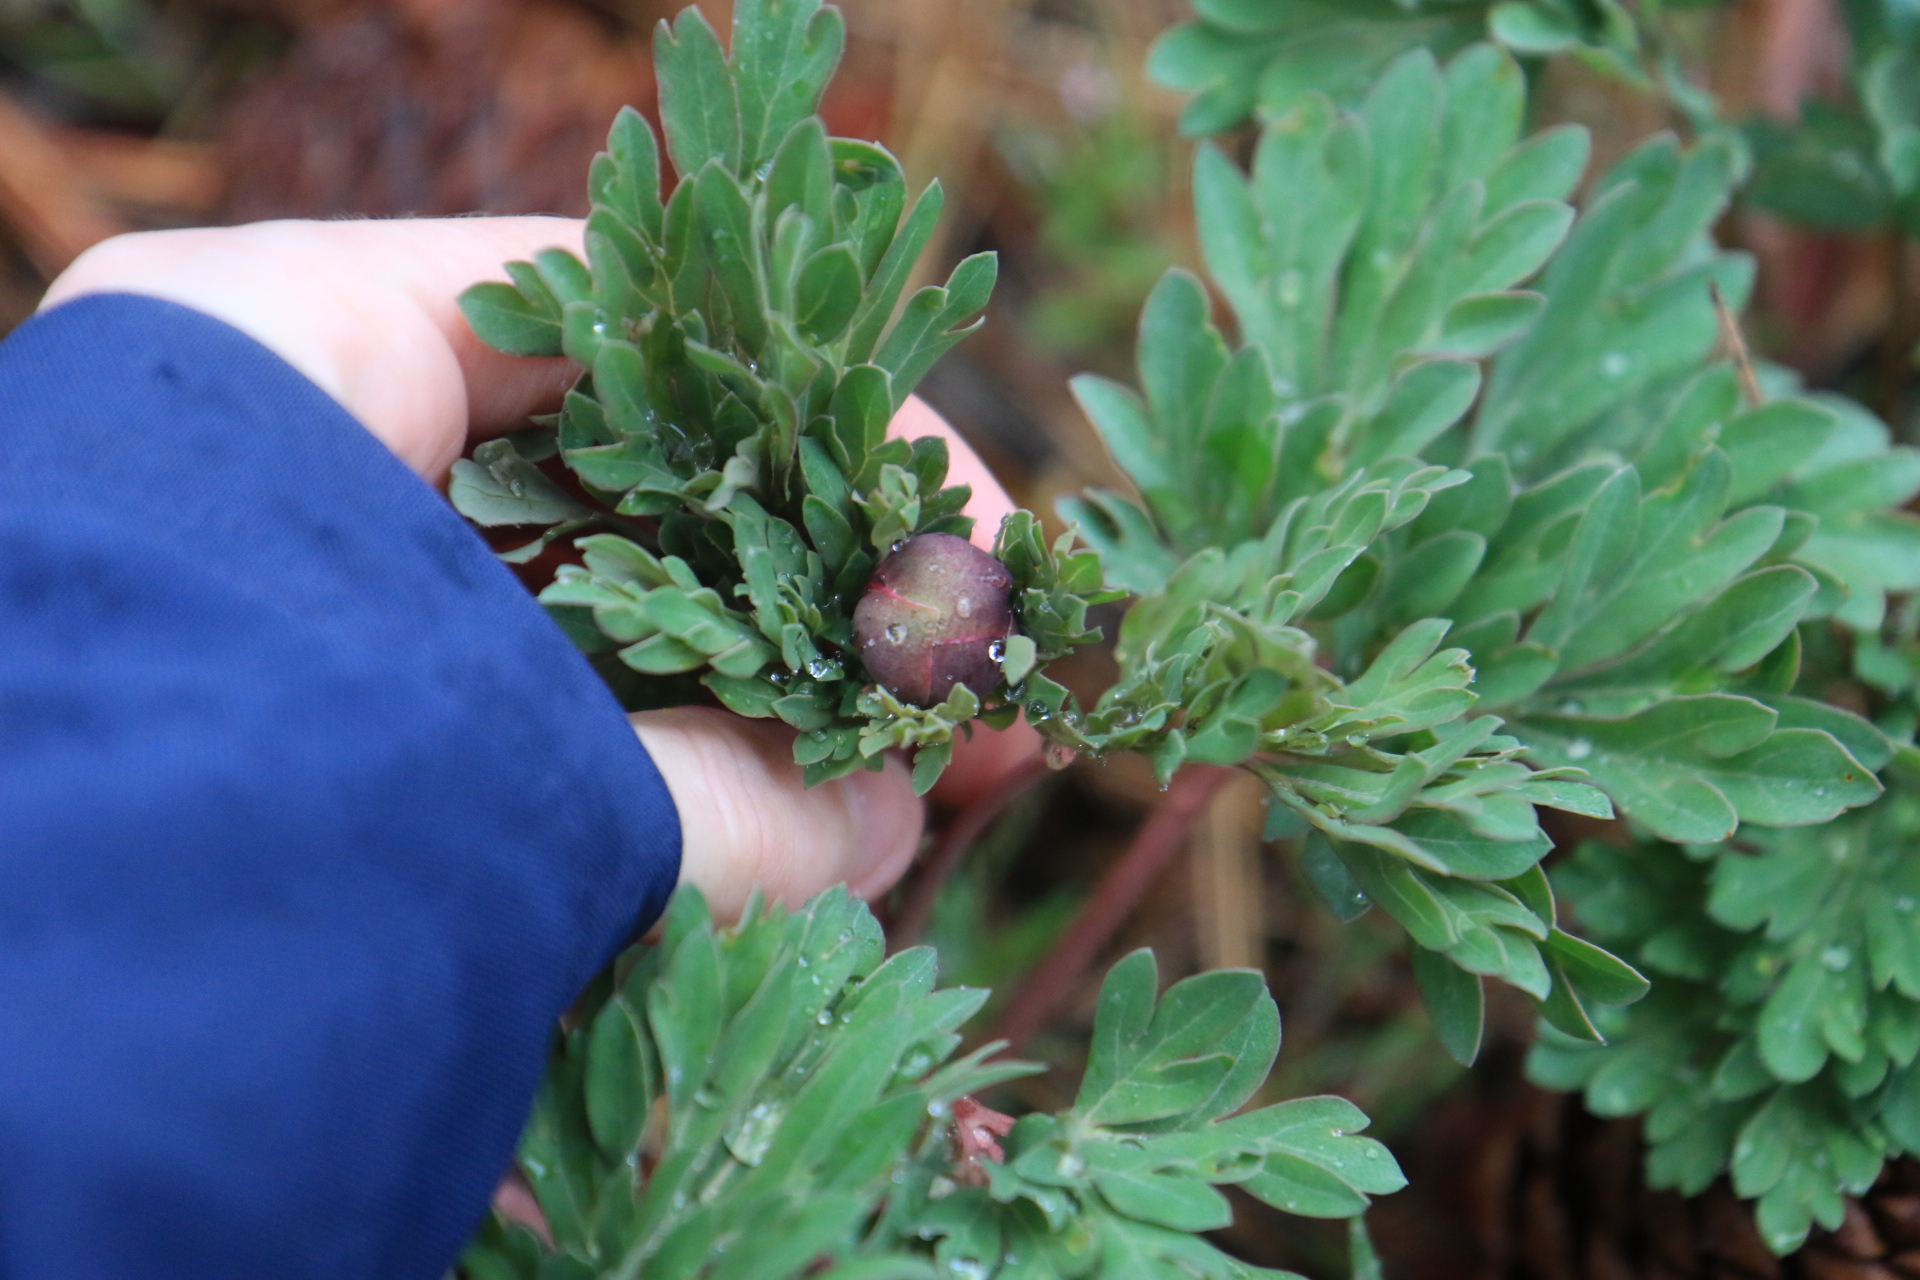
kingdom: Plantae
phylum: Tracheophyta
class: Magnoliopsida
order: Saxifragales
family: Paeoniaceae
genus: Paeonia
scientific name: Paeonia brownii
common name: Brown's peony
